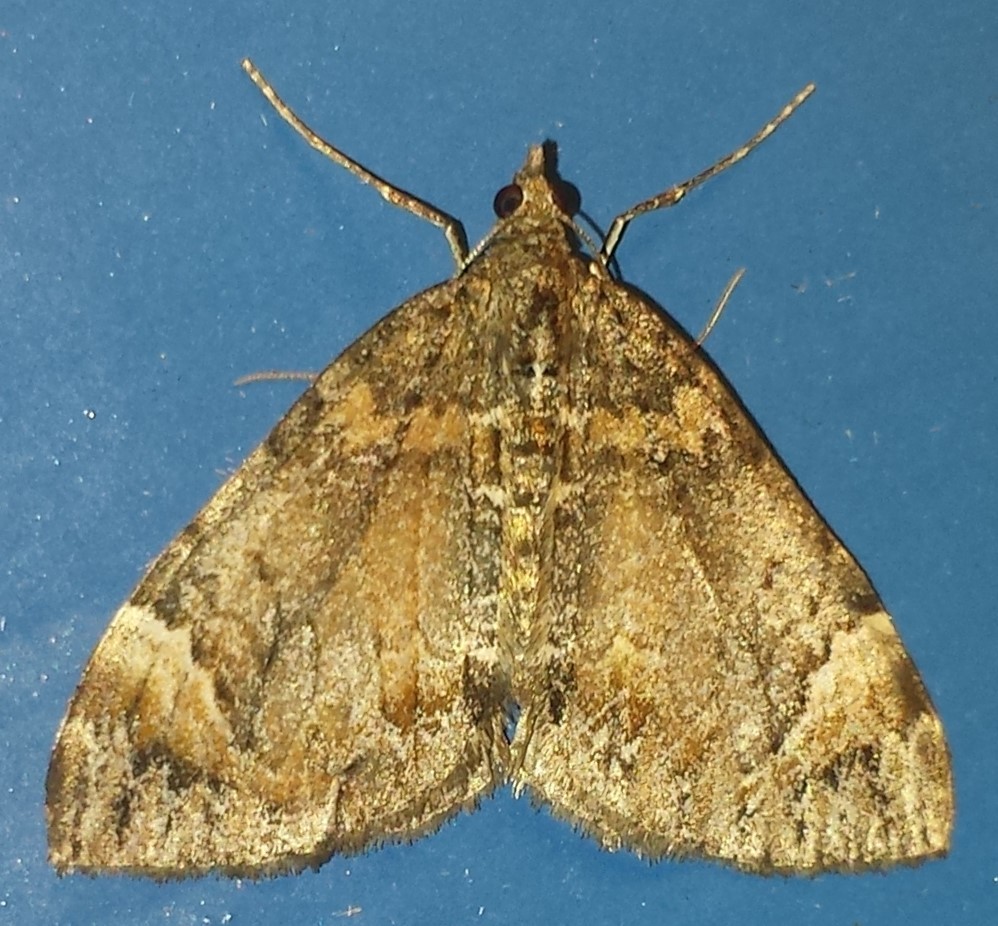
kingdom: Animalia
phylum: Arthropoda
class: Insecta
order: Lepidoptera
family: Geometridae
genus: Dysstroma
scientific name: Dysstroma citrata
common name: Dark marbled carpet
